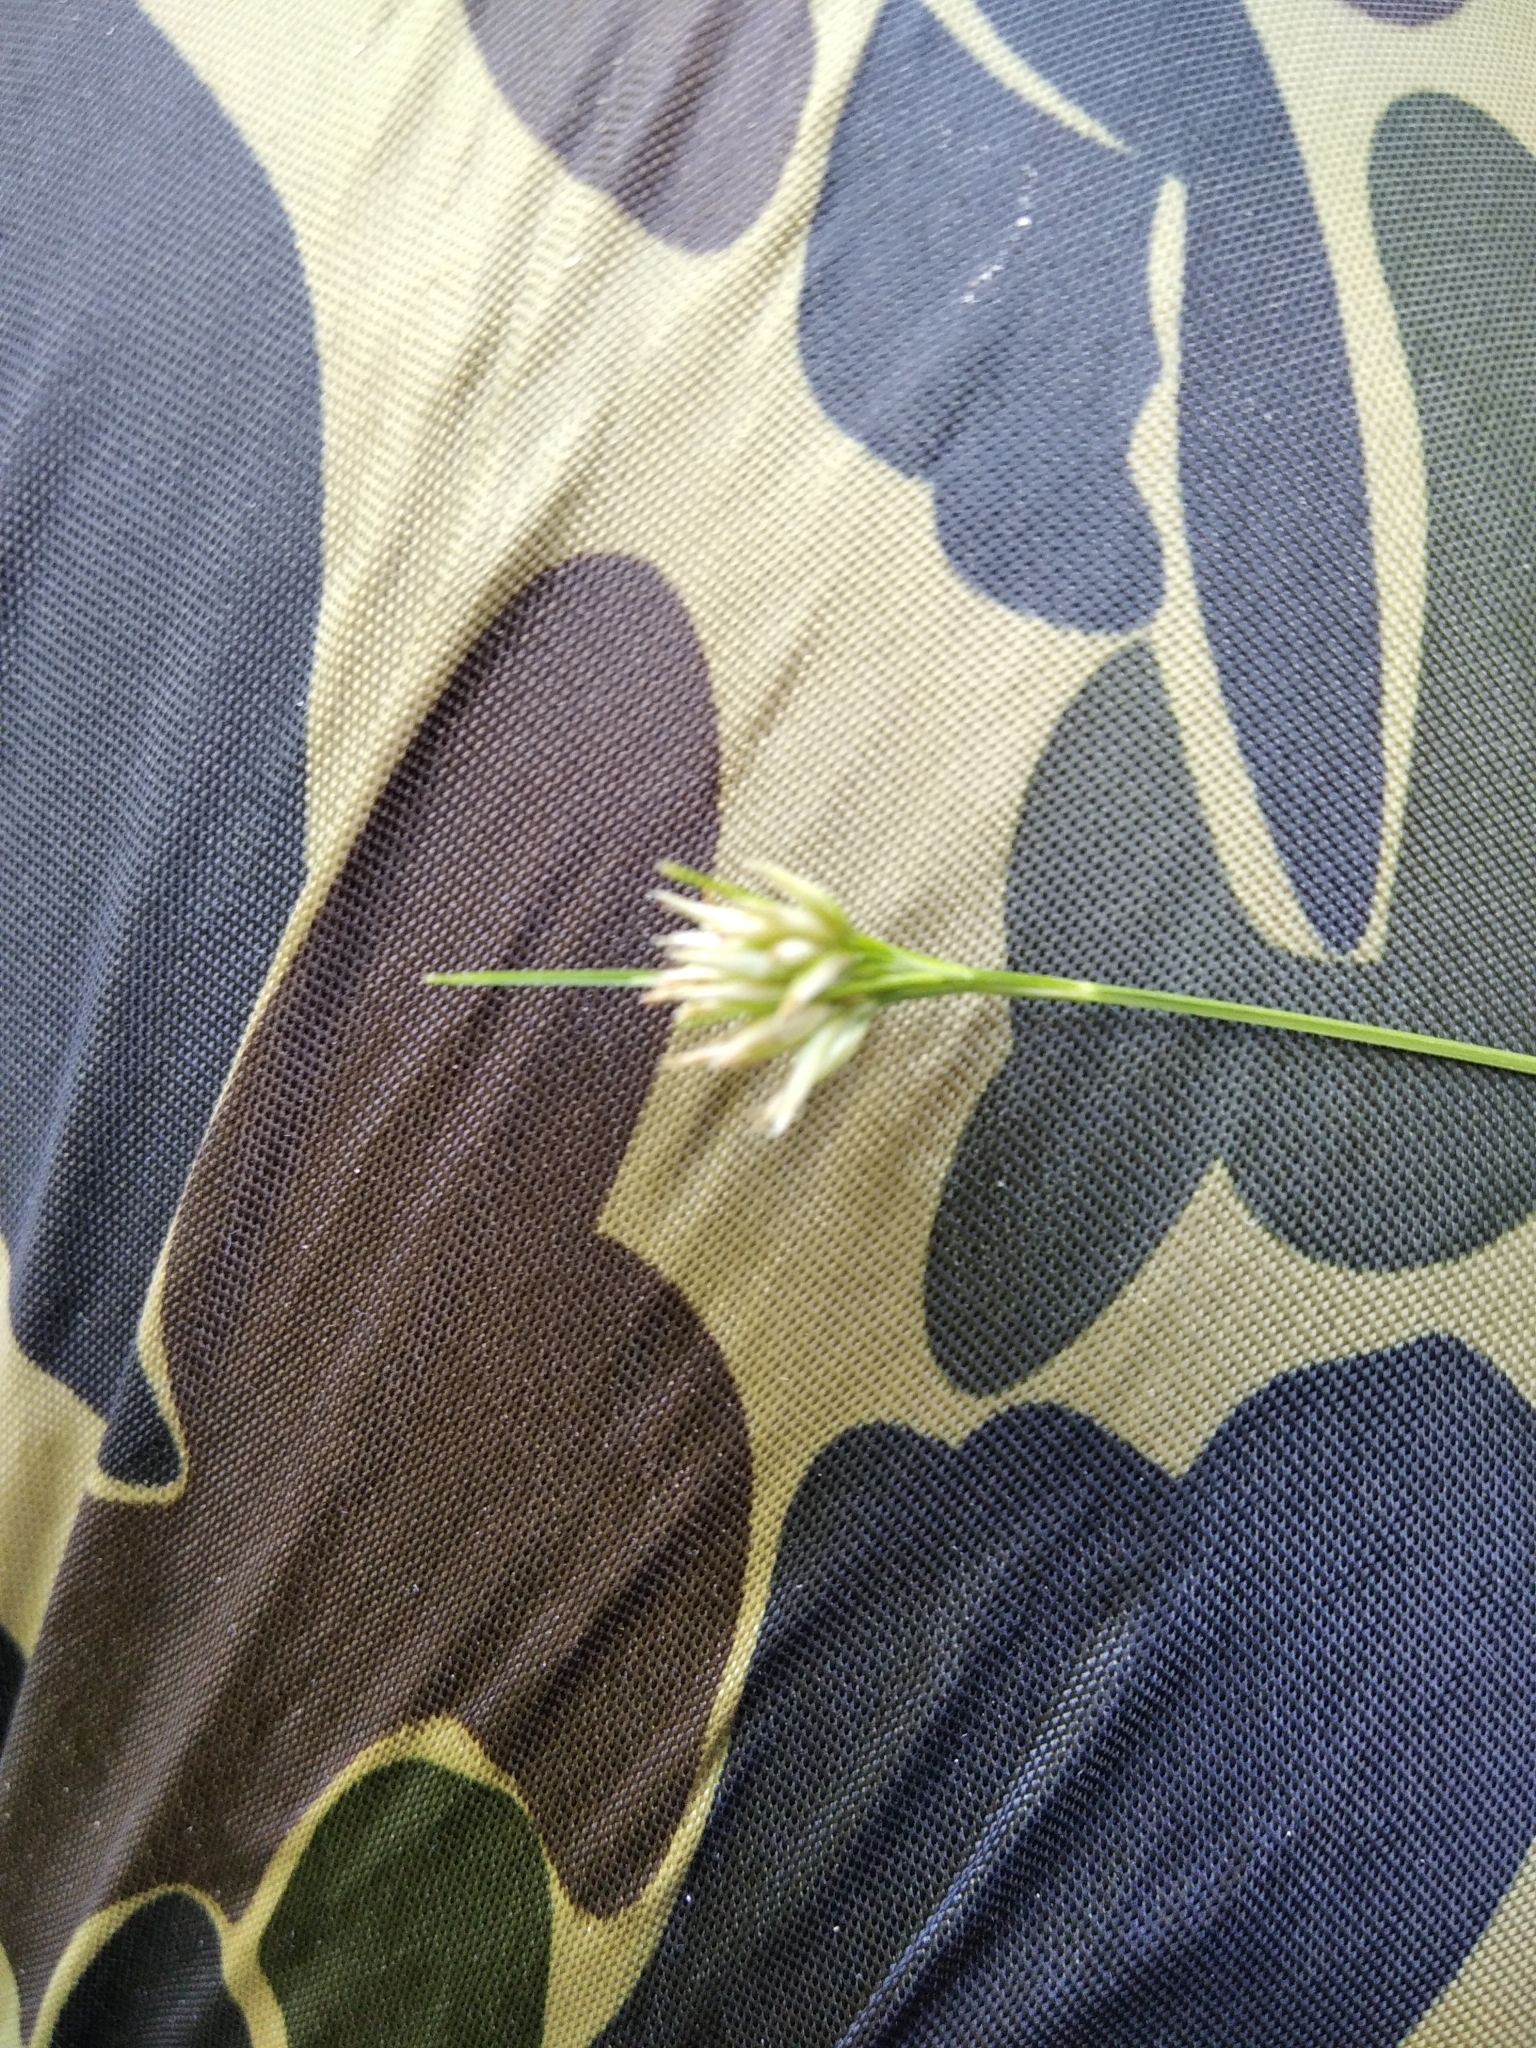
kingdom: Plantae
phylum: Tracheophyta
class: Liliopsida
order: Poales
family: Cyperaceae
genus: Rhynchospora
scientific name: Rhynchospora alba
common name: White beak-sedge
